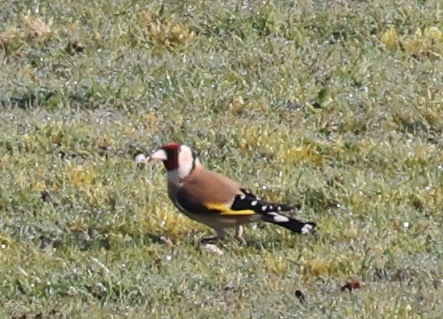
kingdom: Animalia
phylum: Chordata
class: Aves
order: Passeriformes
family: Fringillidae
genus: Carduelis
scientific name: Carduelis carduelis
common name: European goldfinch
